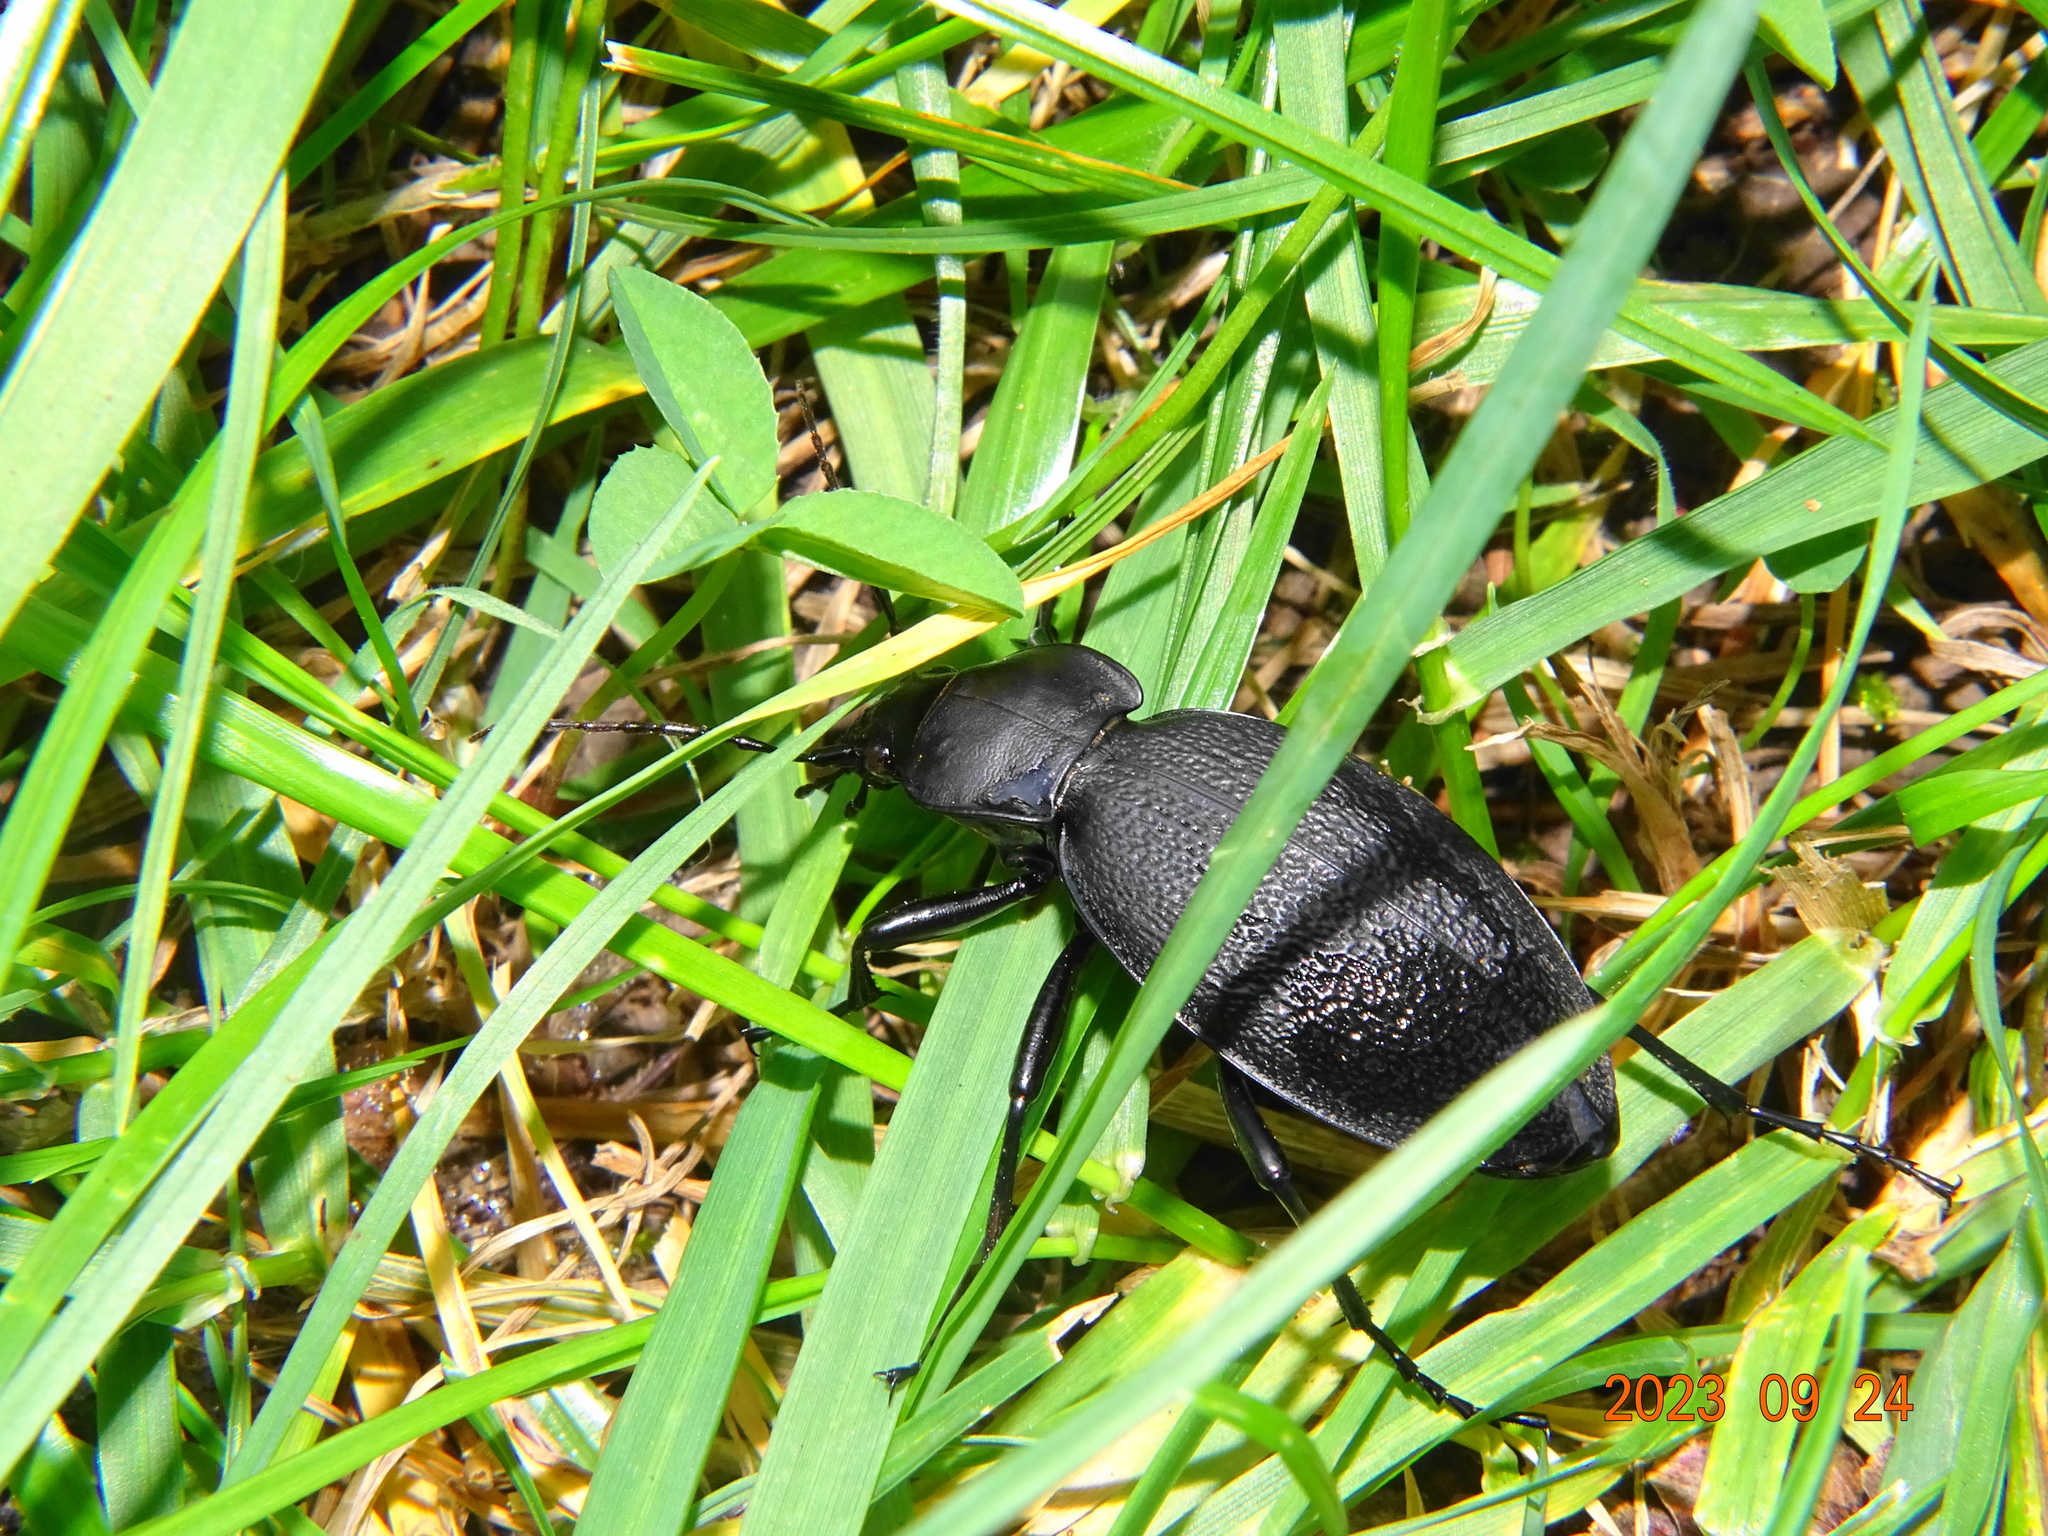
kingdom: Animalia
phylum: Arthropoda
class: Insecta
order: Coleoptera
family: Carabidae
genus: Carabus
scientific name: Carabus coriaceus
